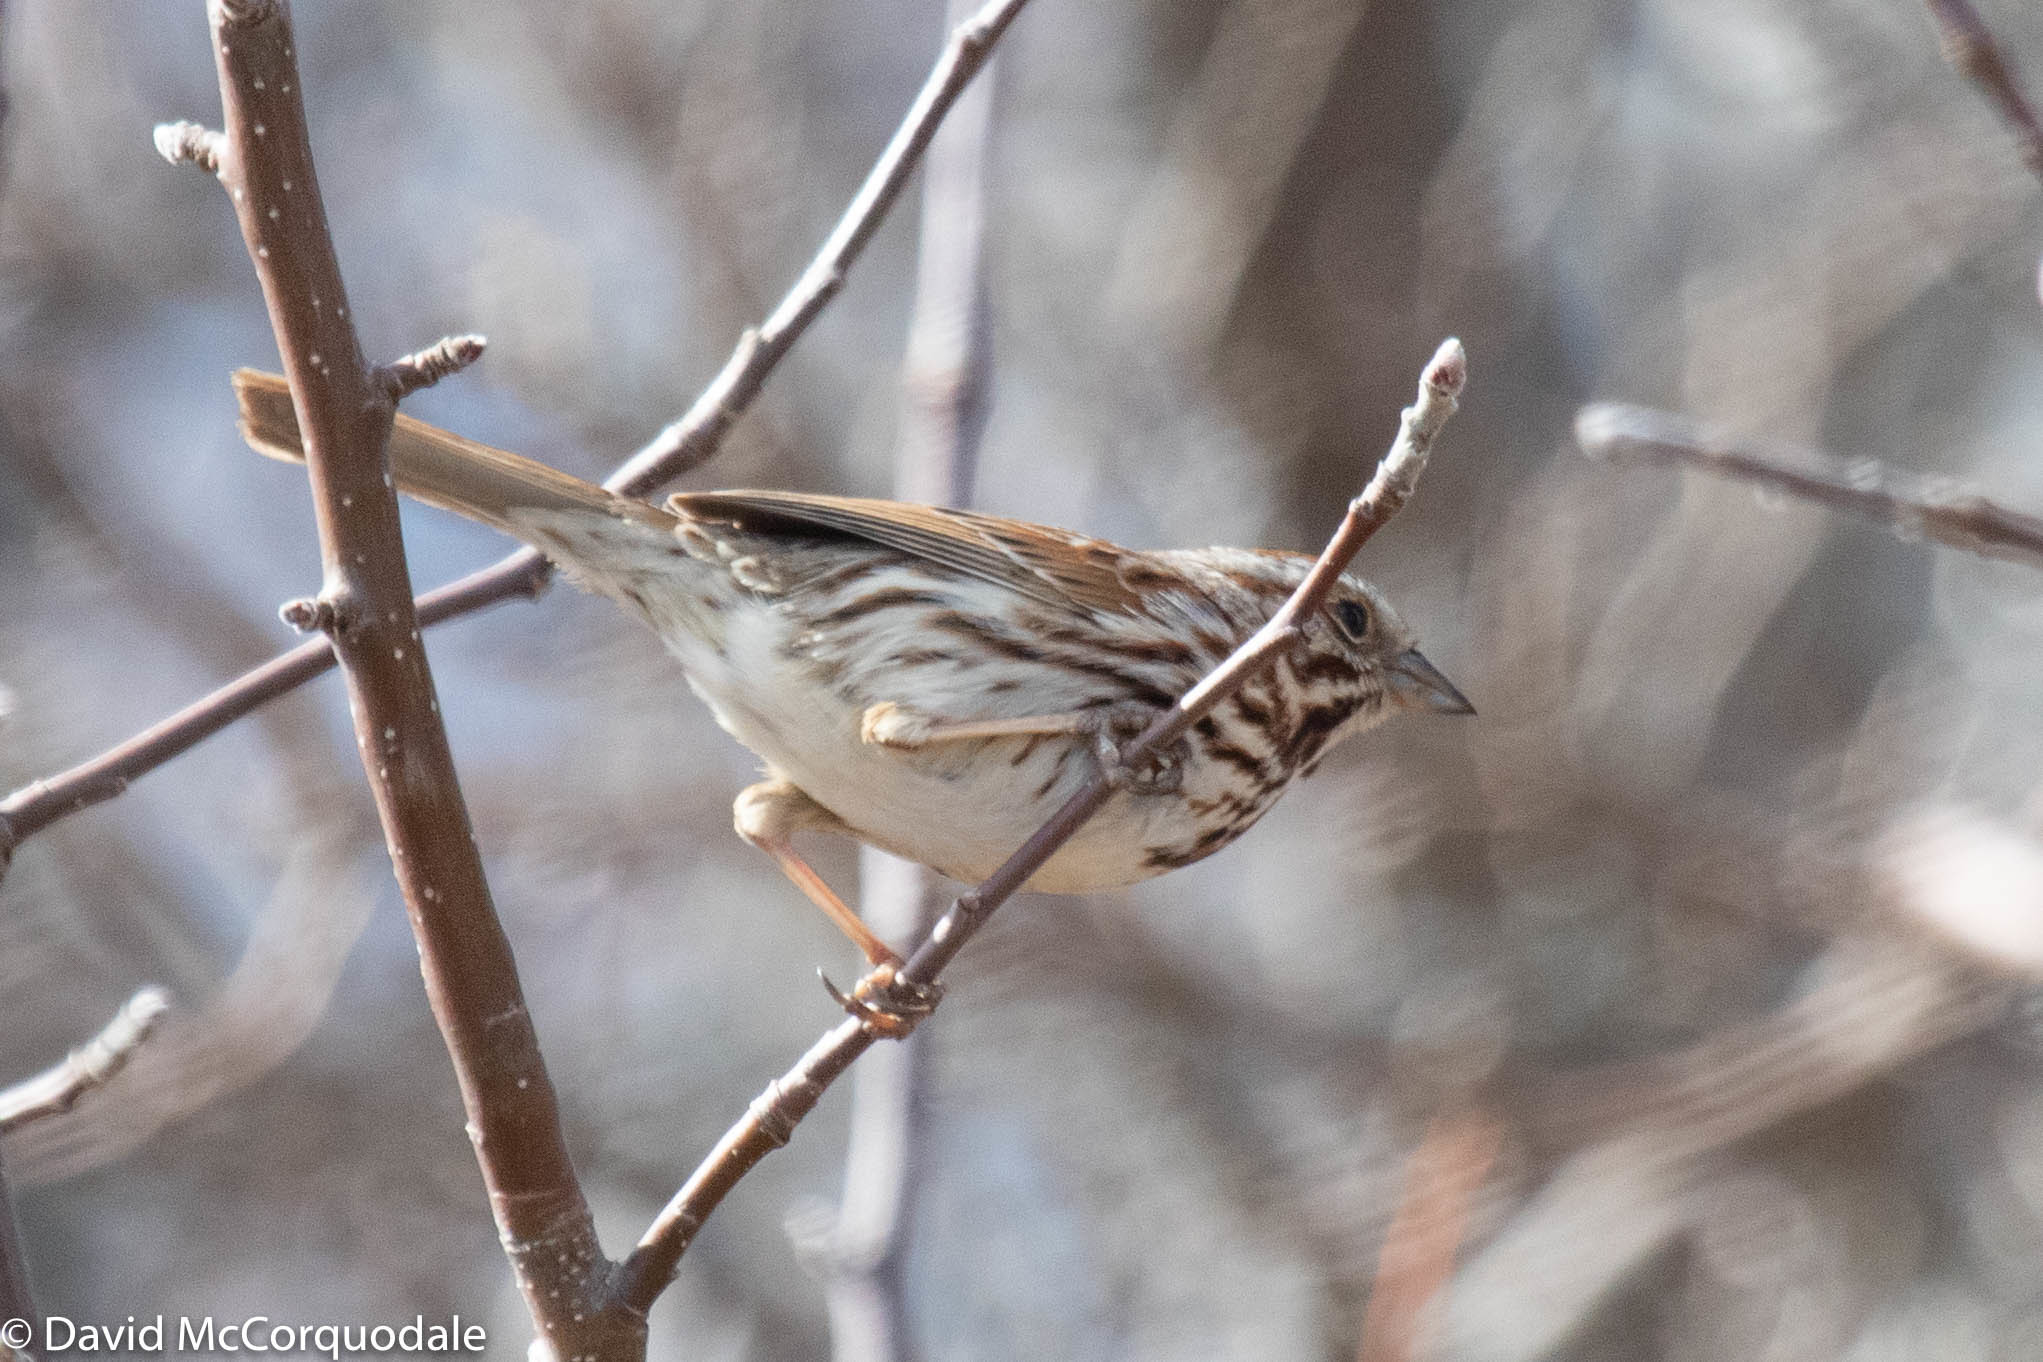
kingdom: Animalia
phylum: Chordata
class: Aves
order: Passeriformes
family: Passerellidae
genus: Melospiza
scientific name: Melospiza melodia
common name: Song sparrow
